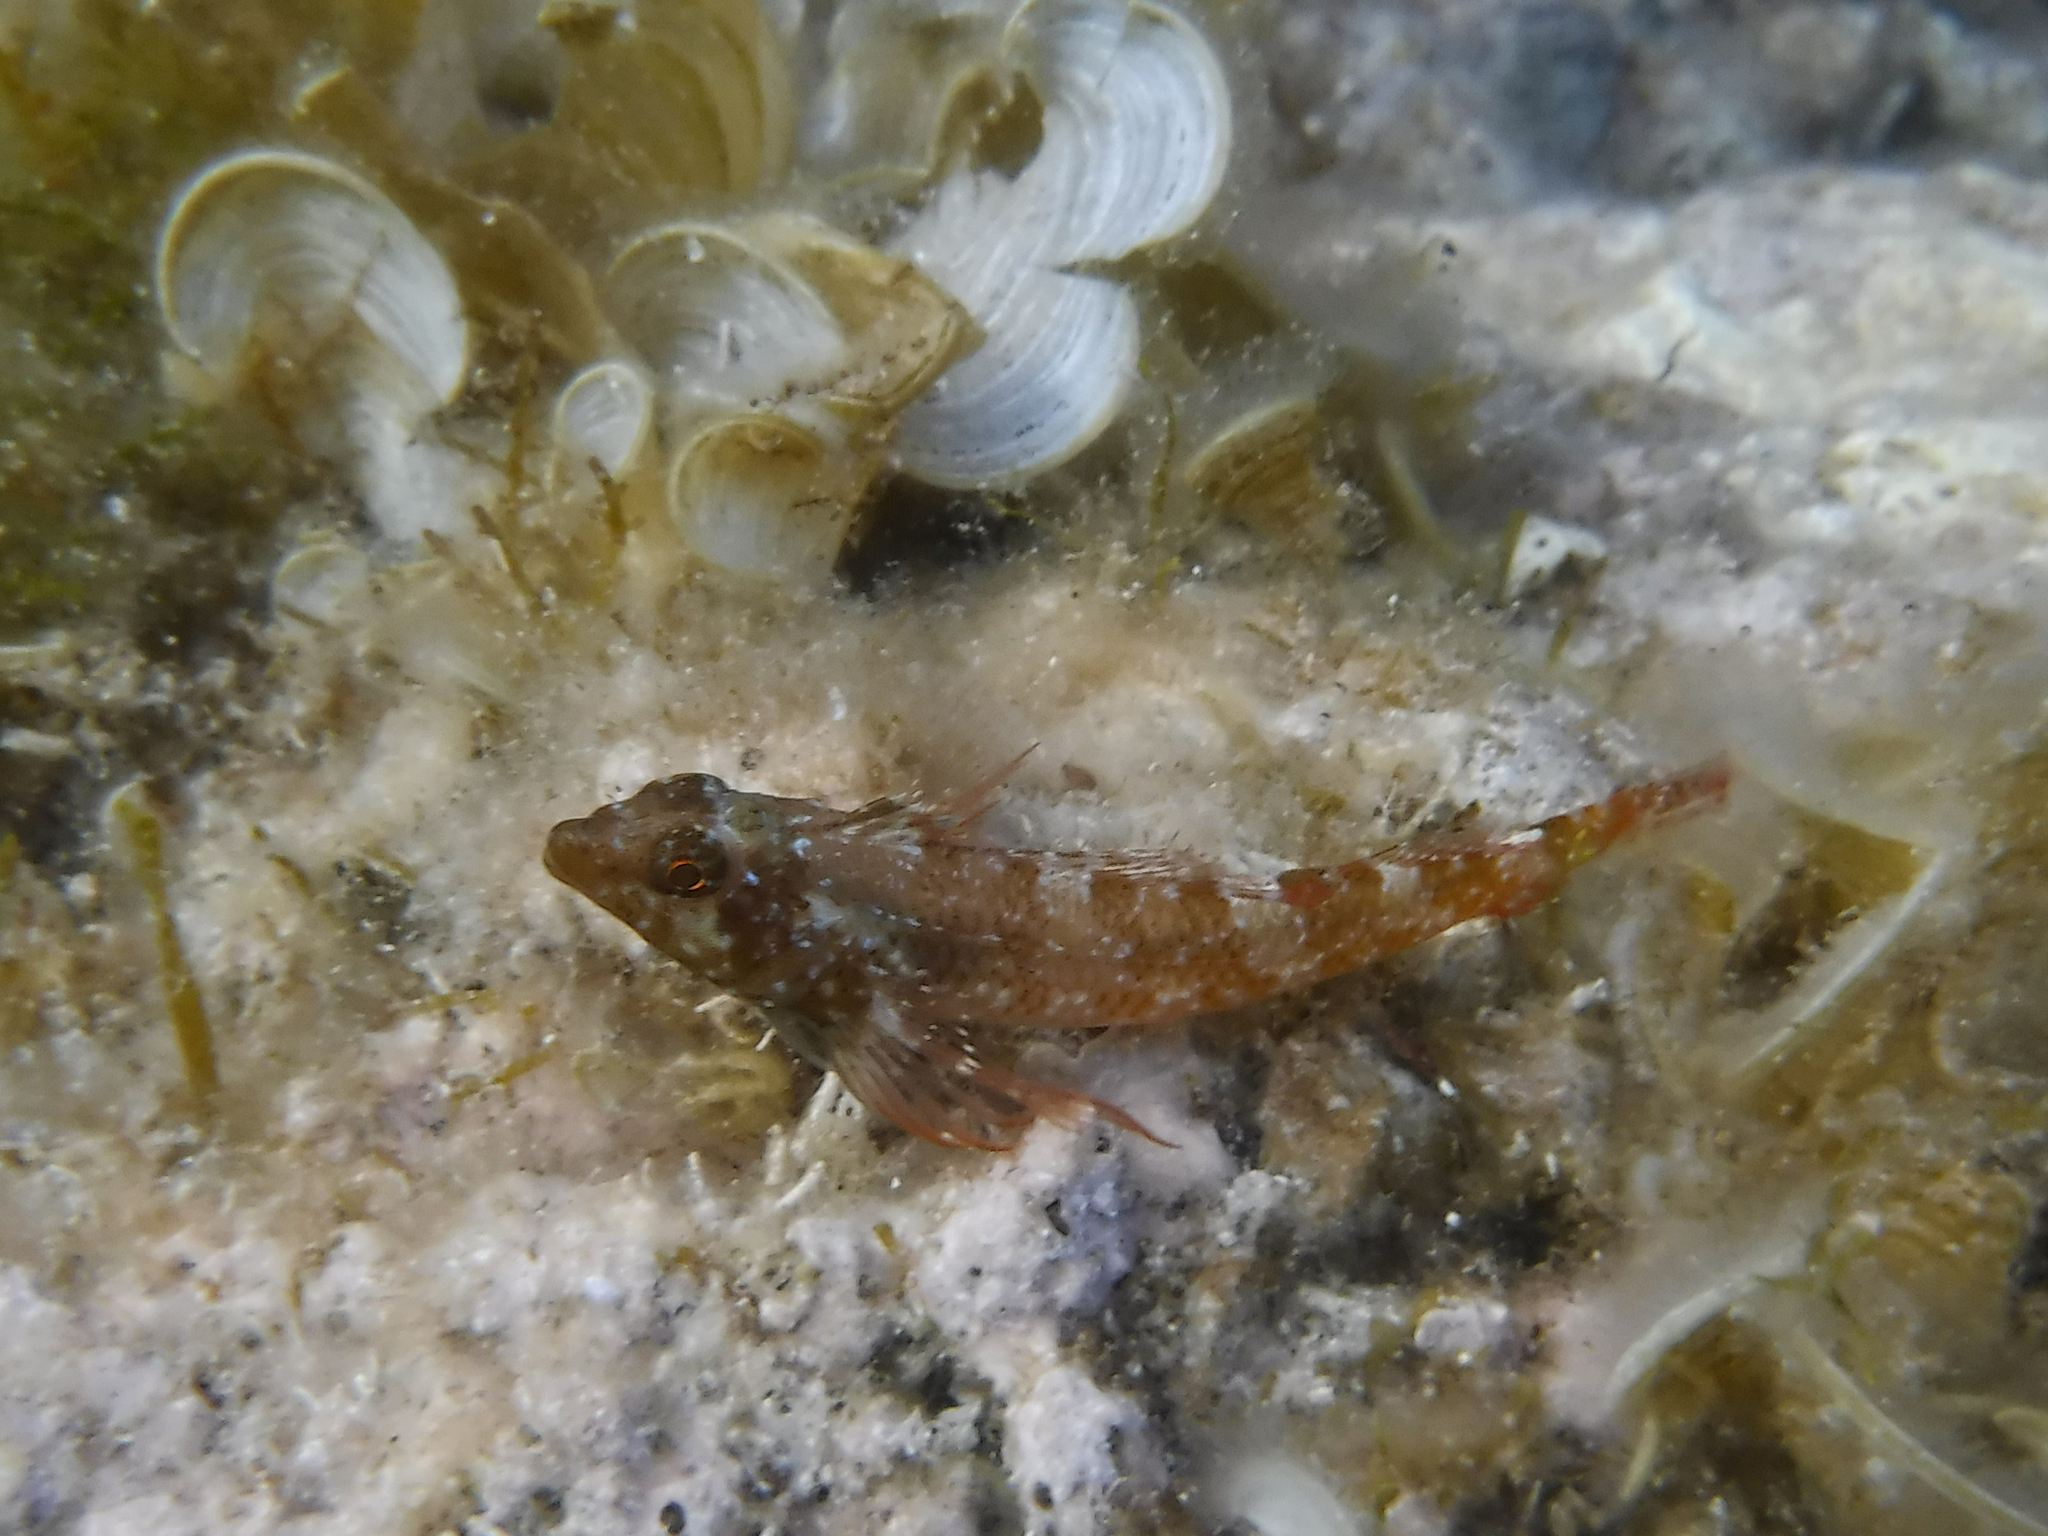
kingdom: Animalia
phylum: Chordata
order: Perciformes
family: Tripterygiidae
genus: Tripterygion
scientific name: Tripterygion tripteronotum
